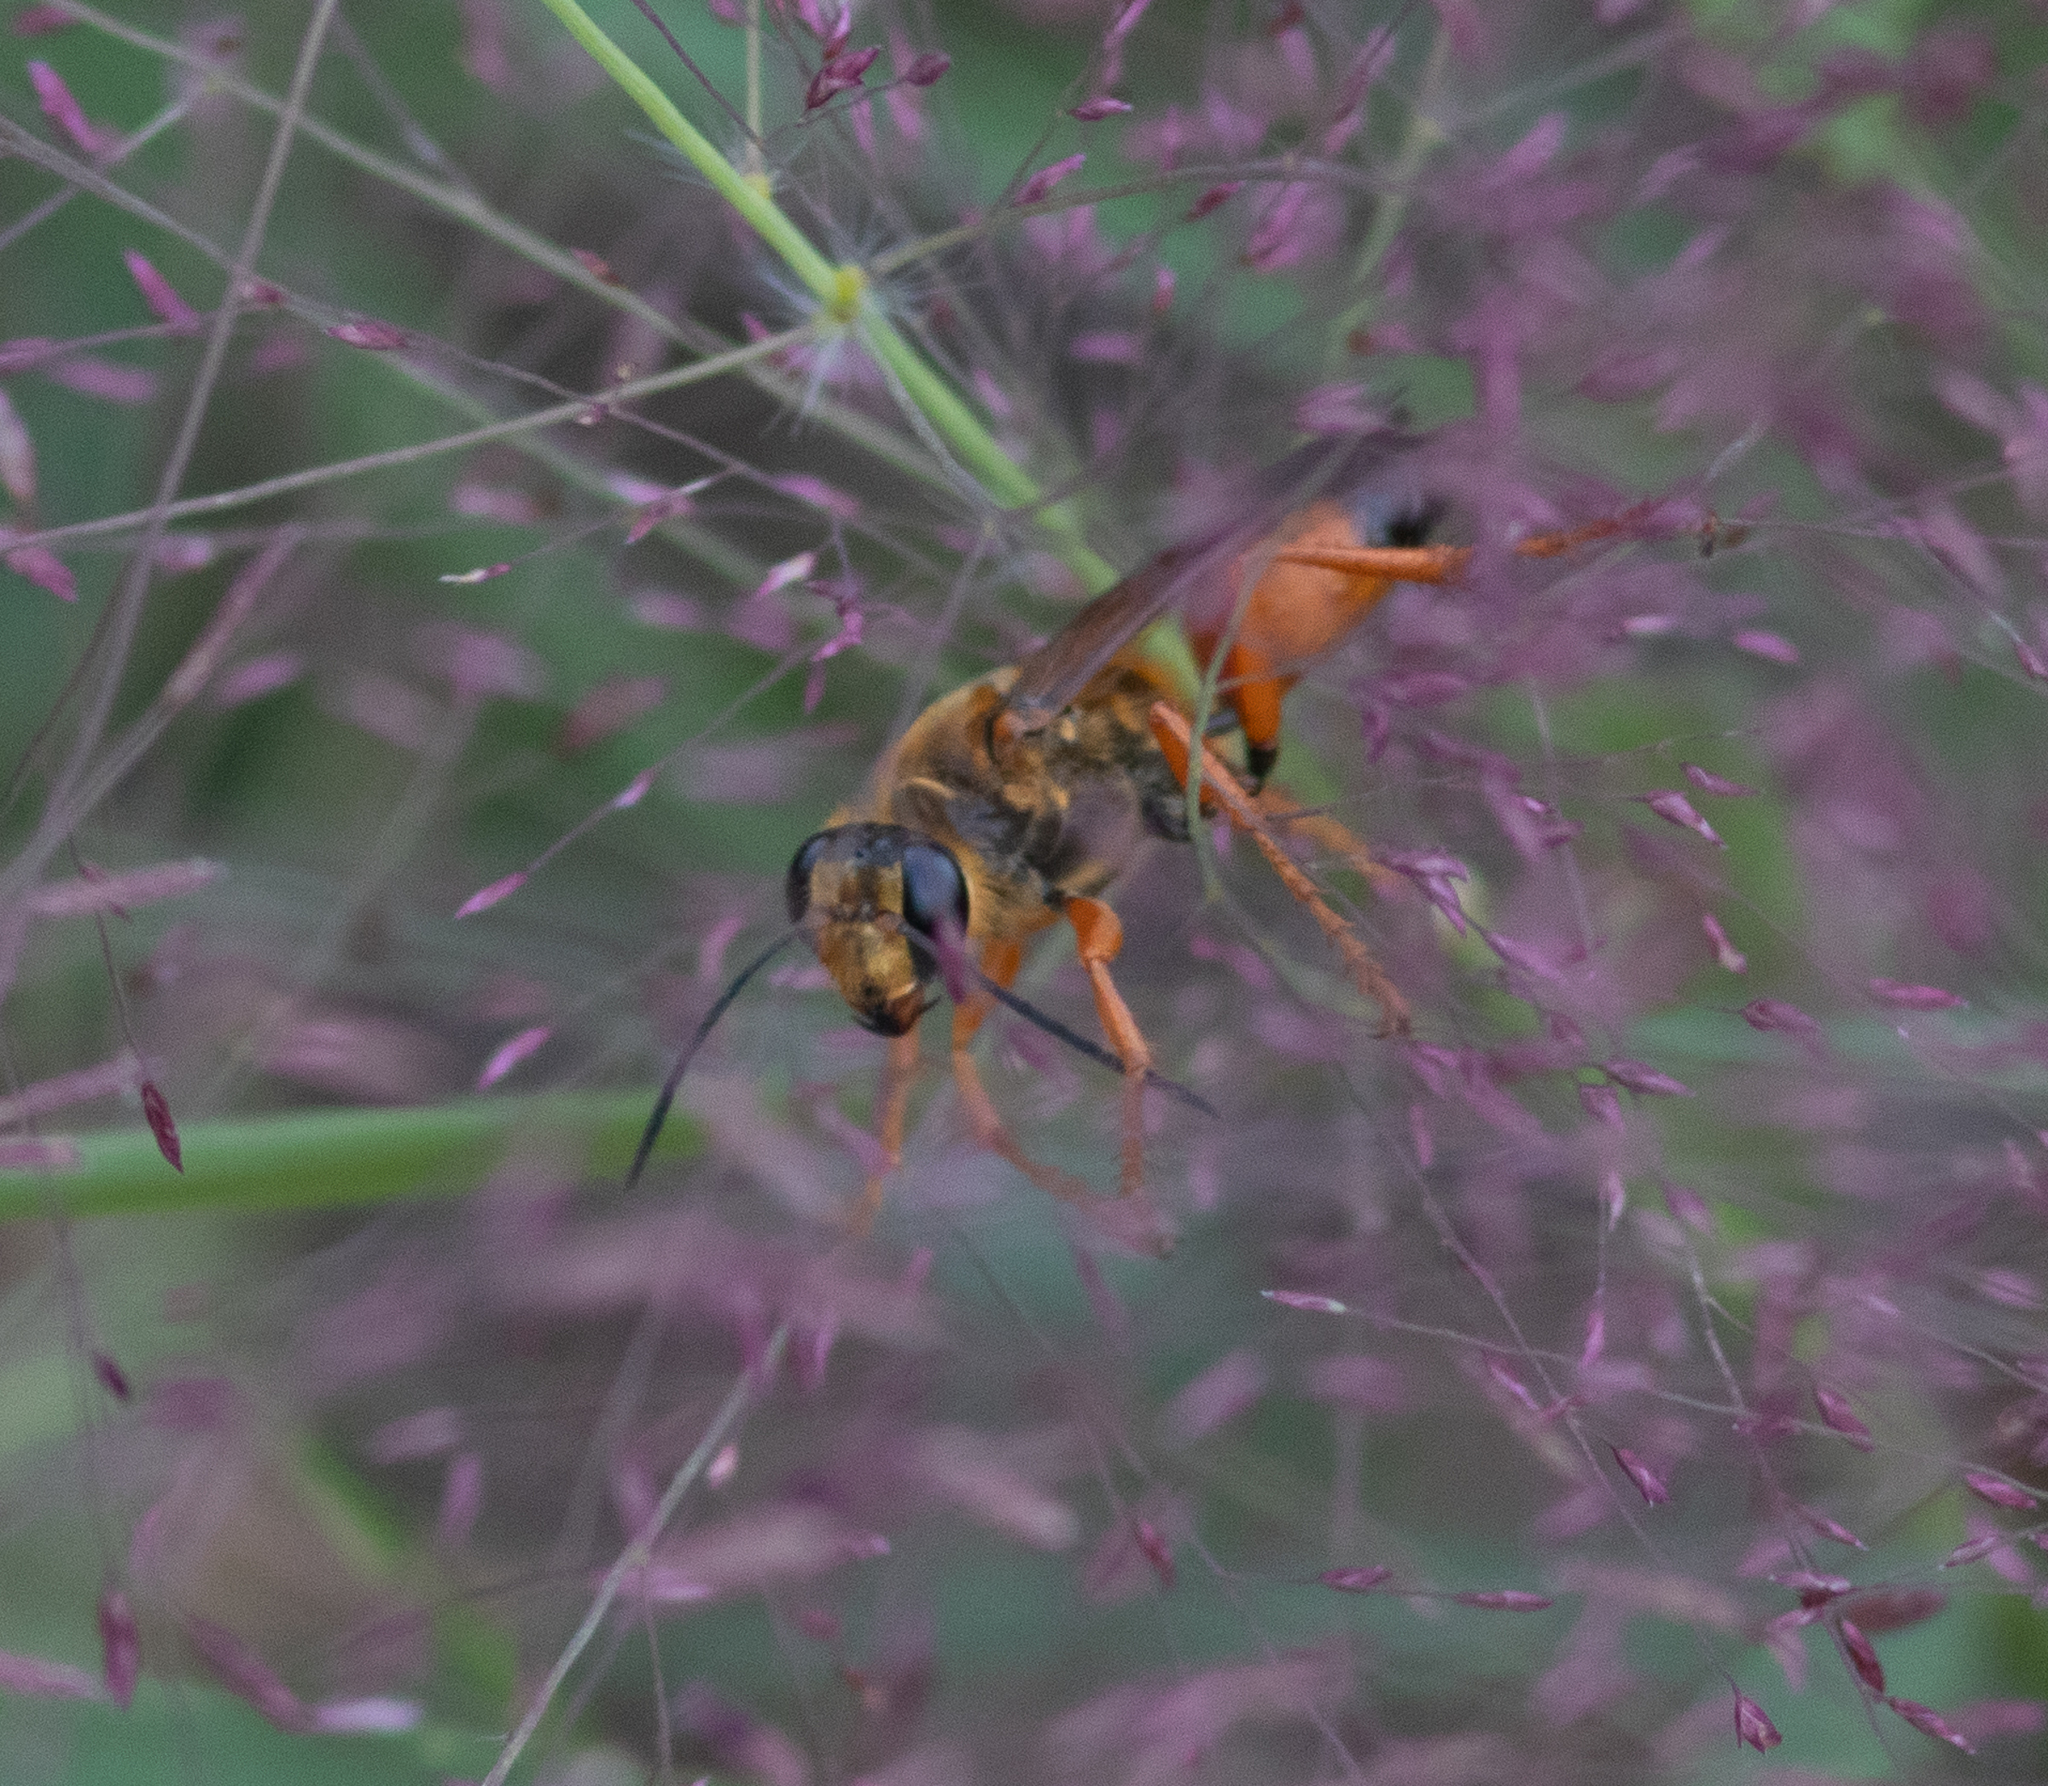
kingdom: Animalia
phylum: Arthropoda
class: Insecta
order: Hymenoptera
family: Sphecidae
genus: Sphex
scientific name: Sphex ichneumoneus
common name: Great golden digger wasp
